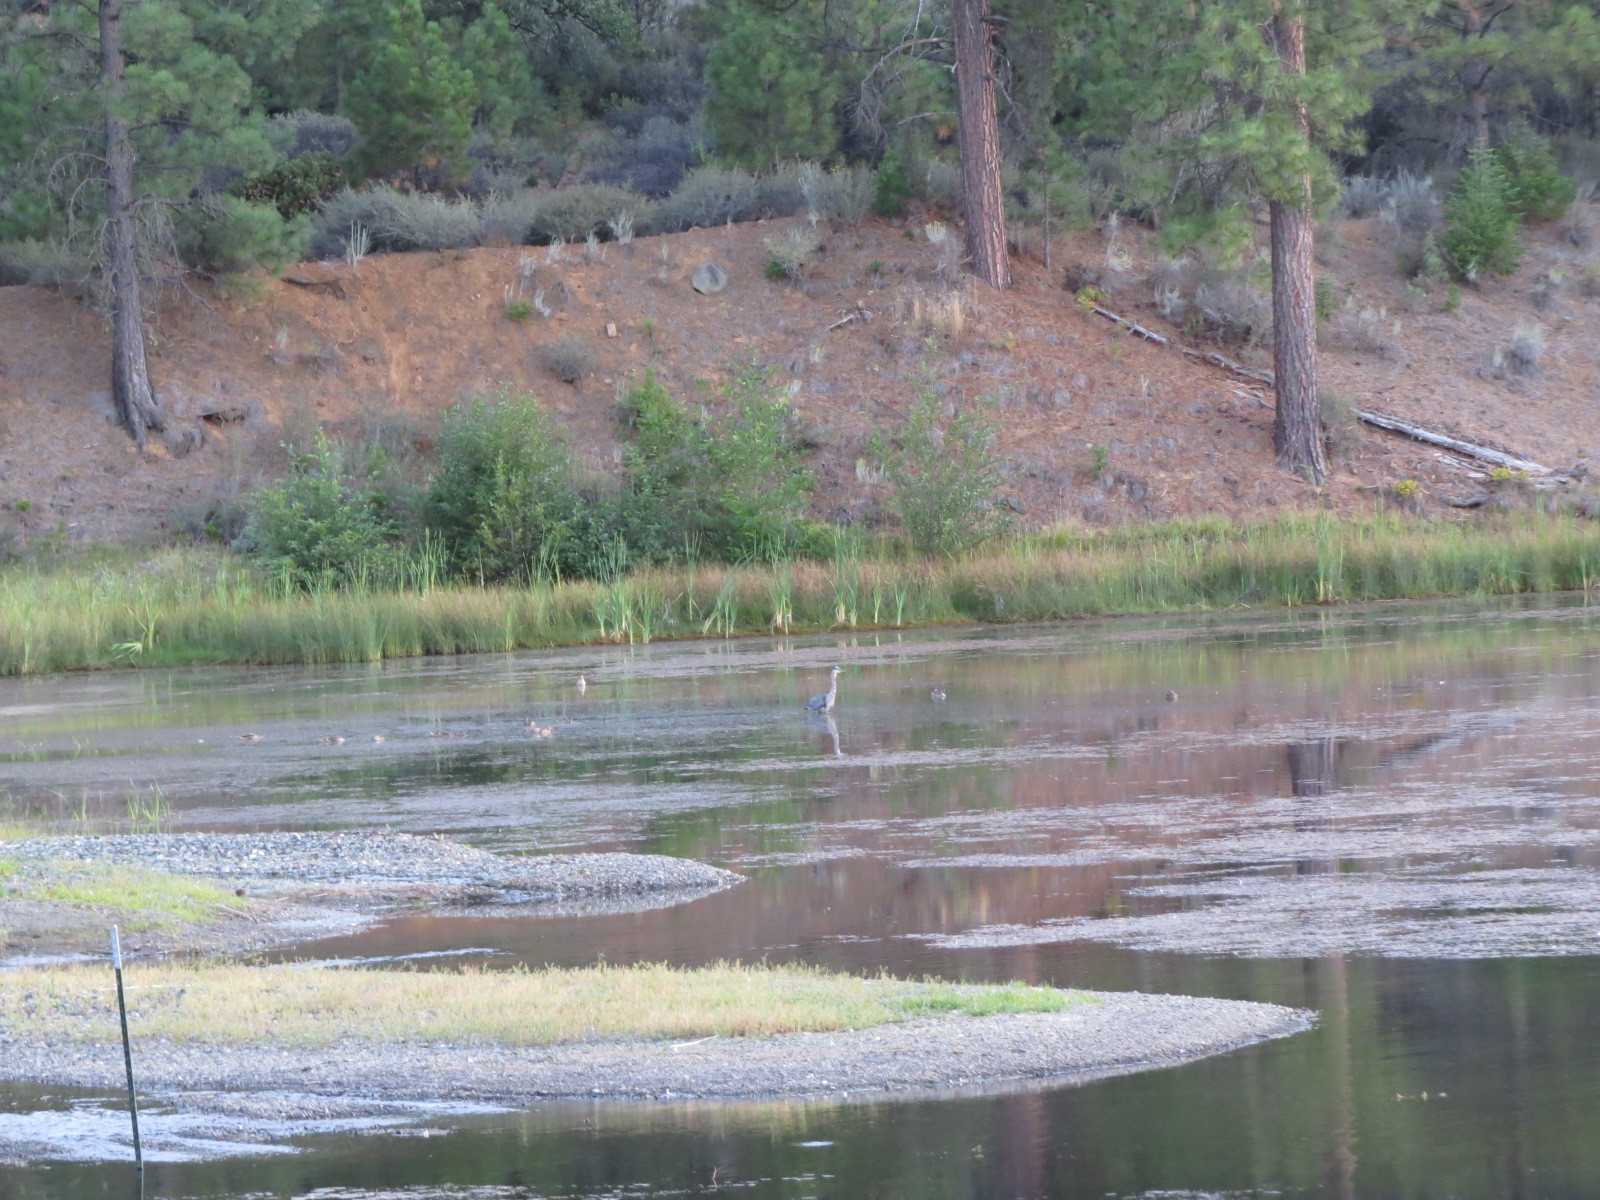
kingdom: Animalia
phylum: Chordata
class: Aves
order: Pelecaniformes
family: Ardeidae
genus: Ardea
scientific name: Ardea herodias
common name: Great blue heron
